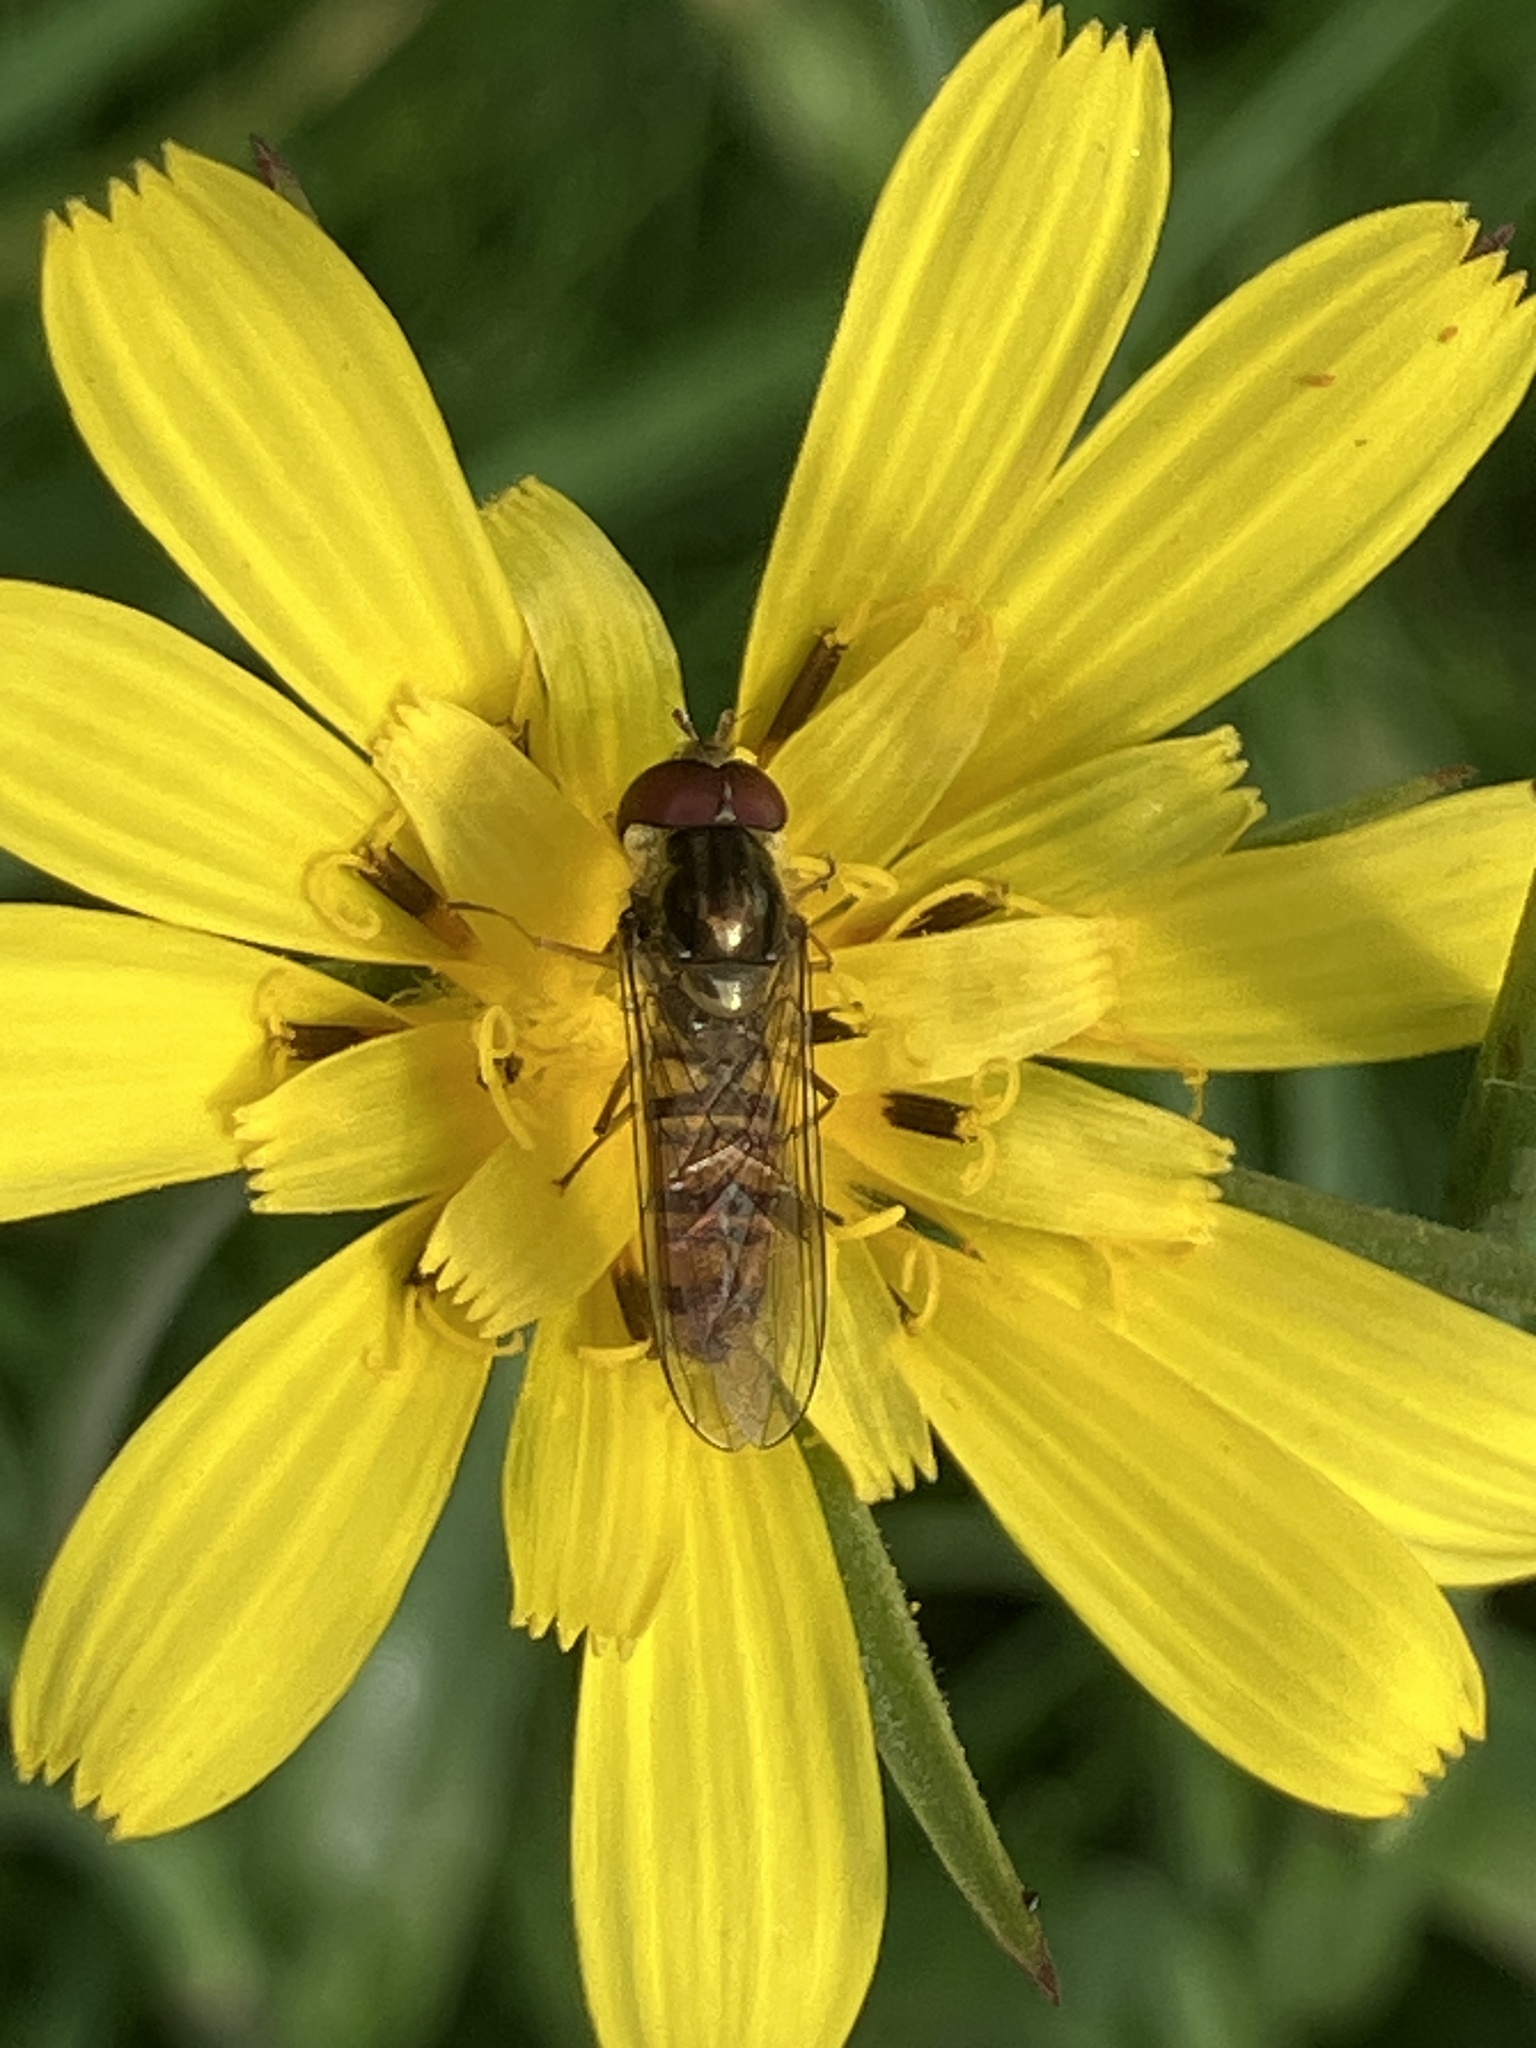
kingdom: Animalia
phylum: Arthropoda
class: Insecta
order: Diptera
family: Syrphidae
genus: Episyrphus
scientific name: Episyrphus balteatus
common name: Marmalade hoverfly
